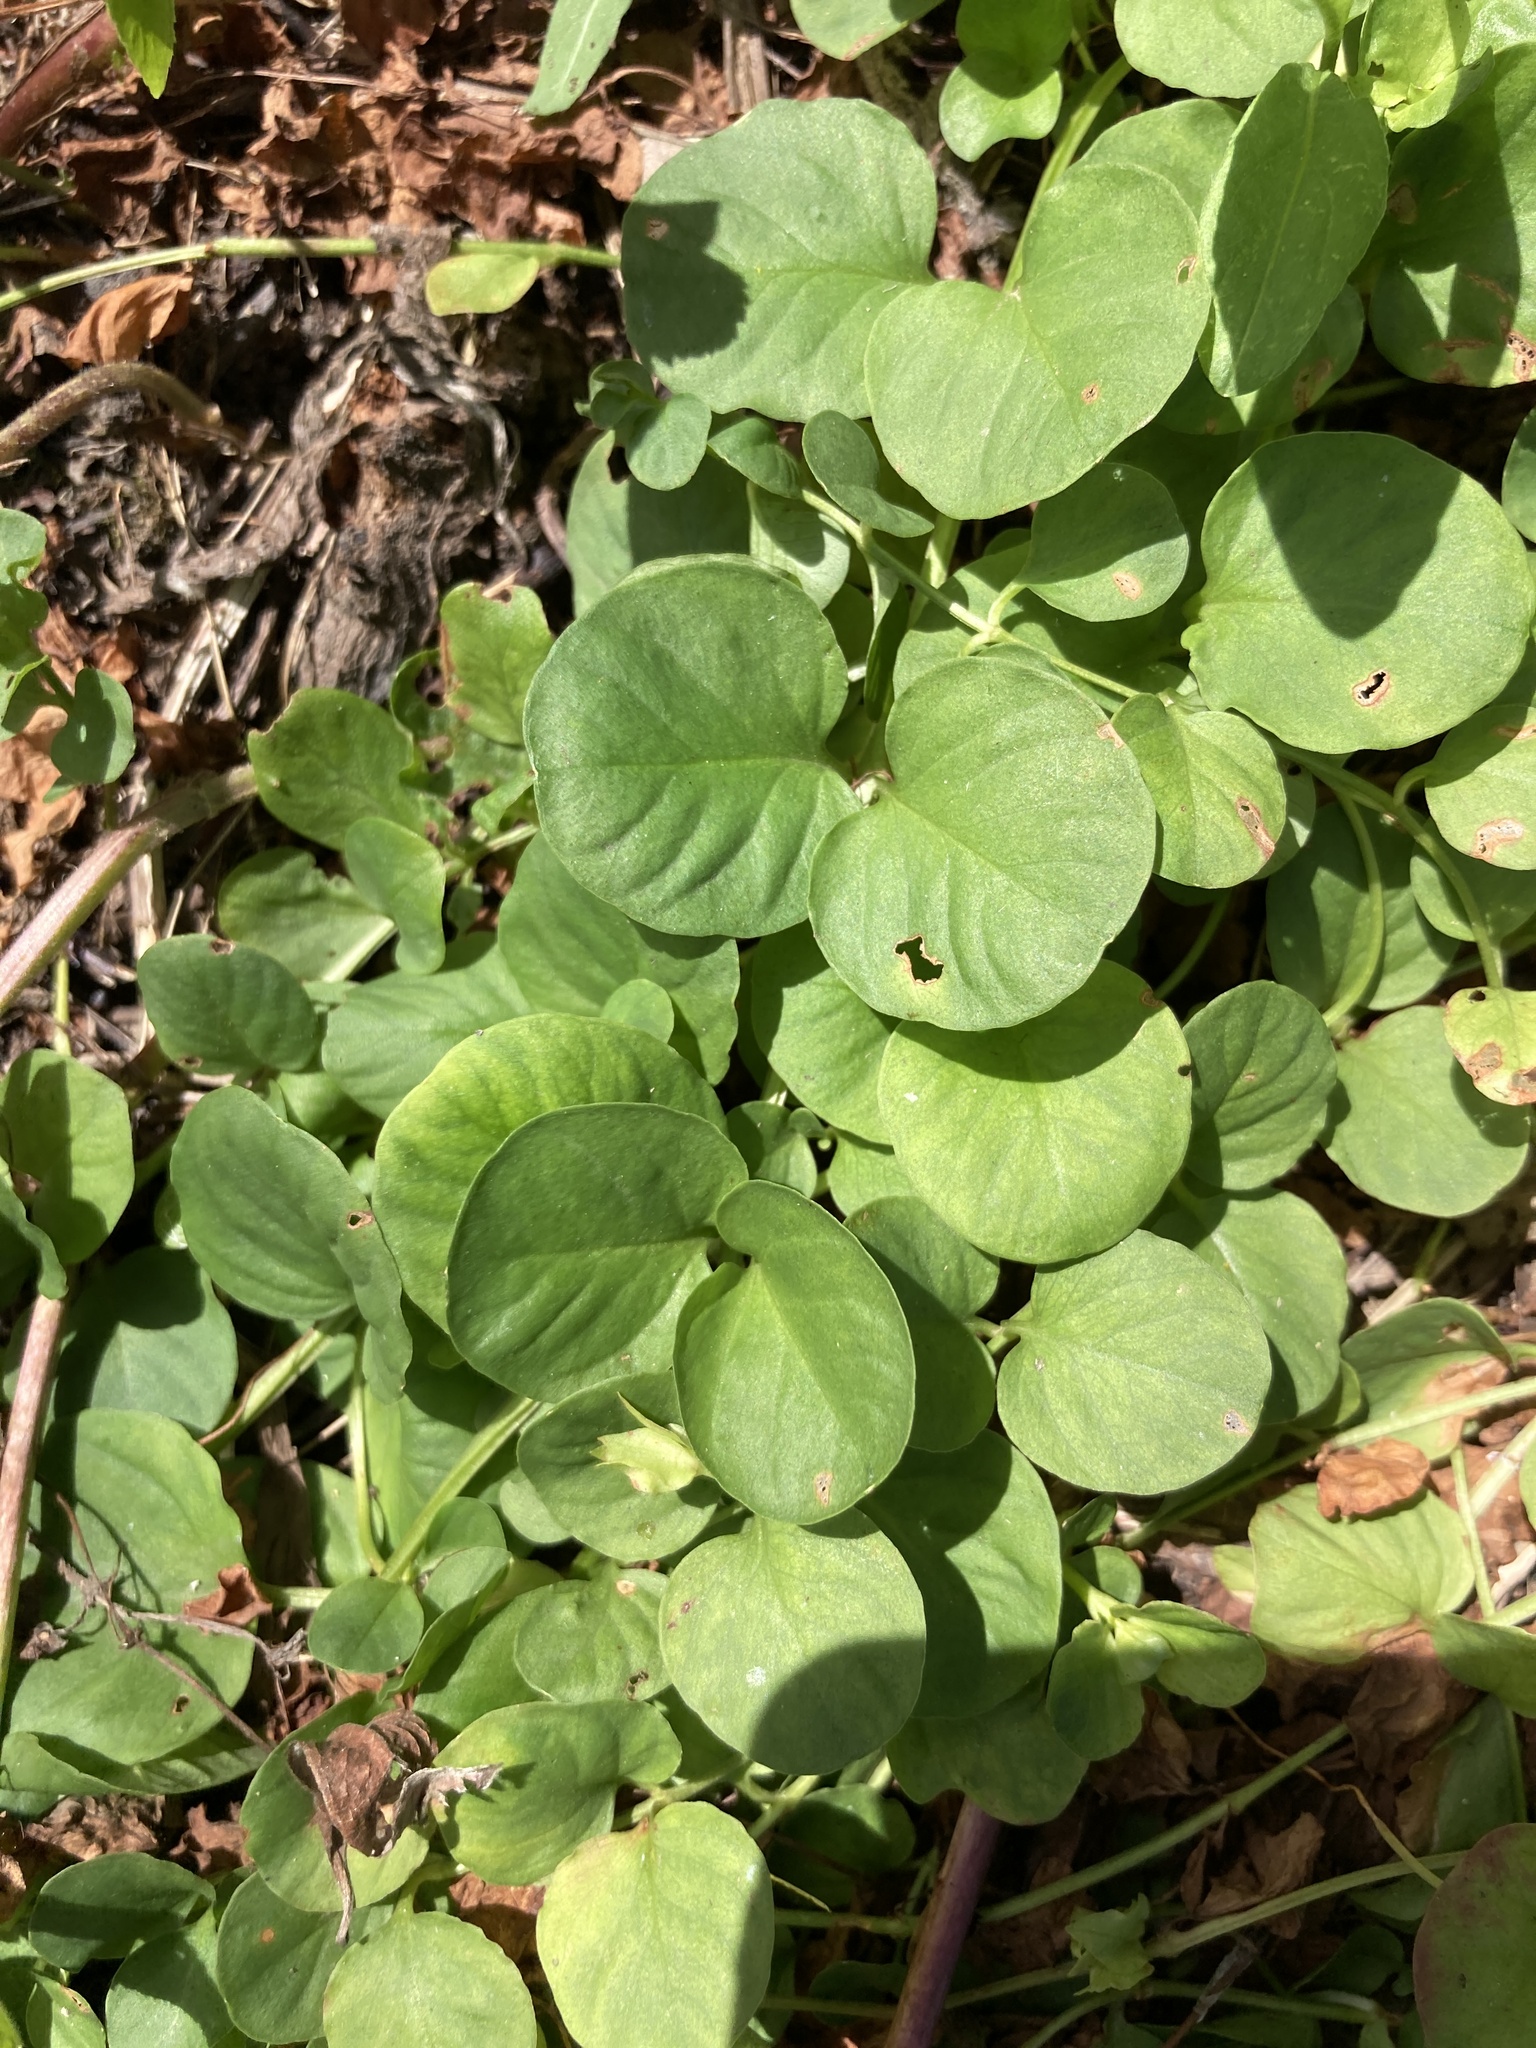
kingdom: Plantae
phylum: Tracheophyta
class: Magnoliopsida
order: Ericales
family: Primulaceae
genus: Lysimachia
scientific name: Lysimachia nummularia
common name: Moneywort
